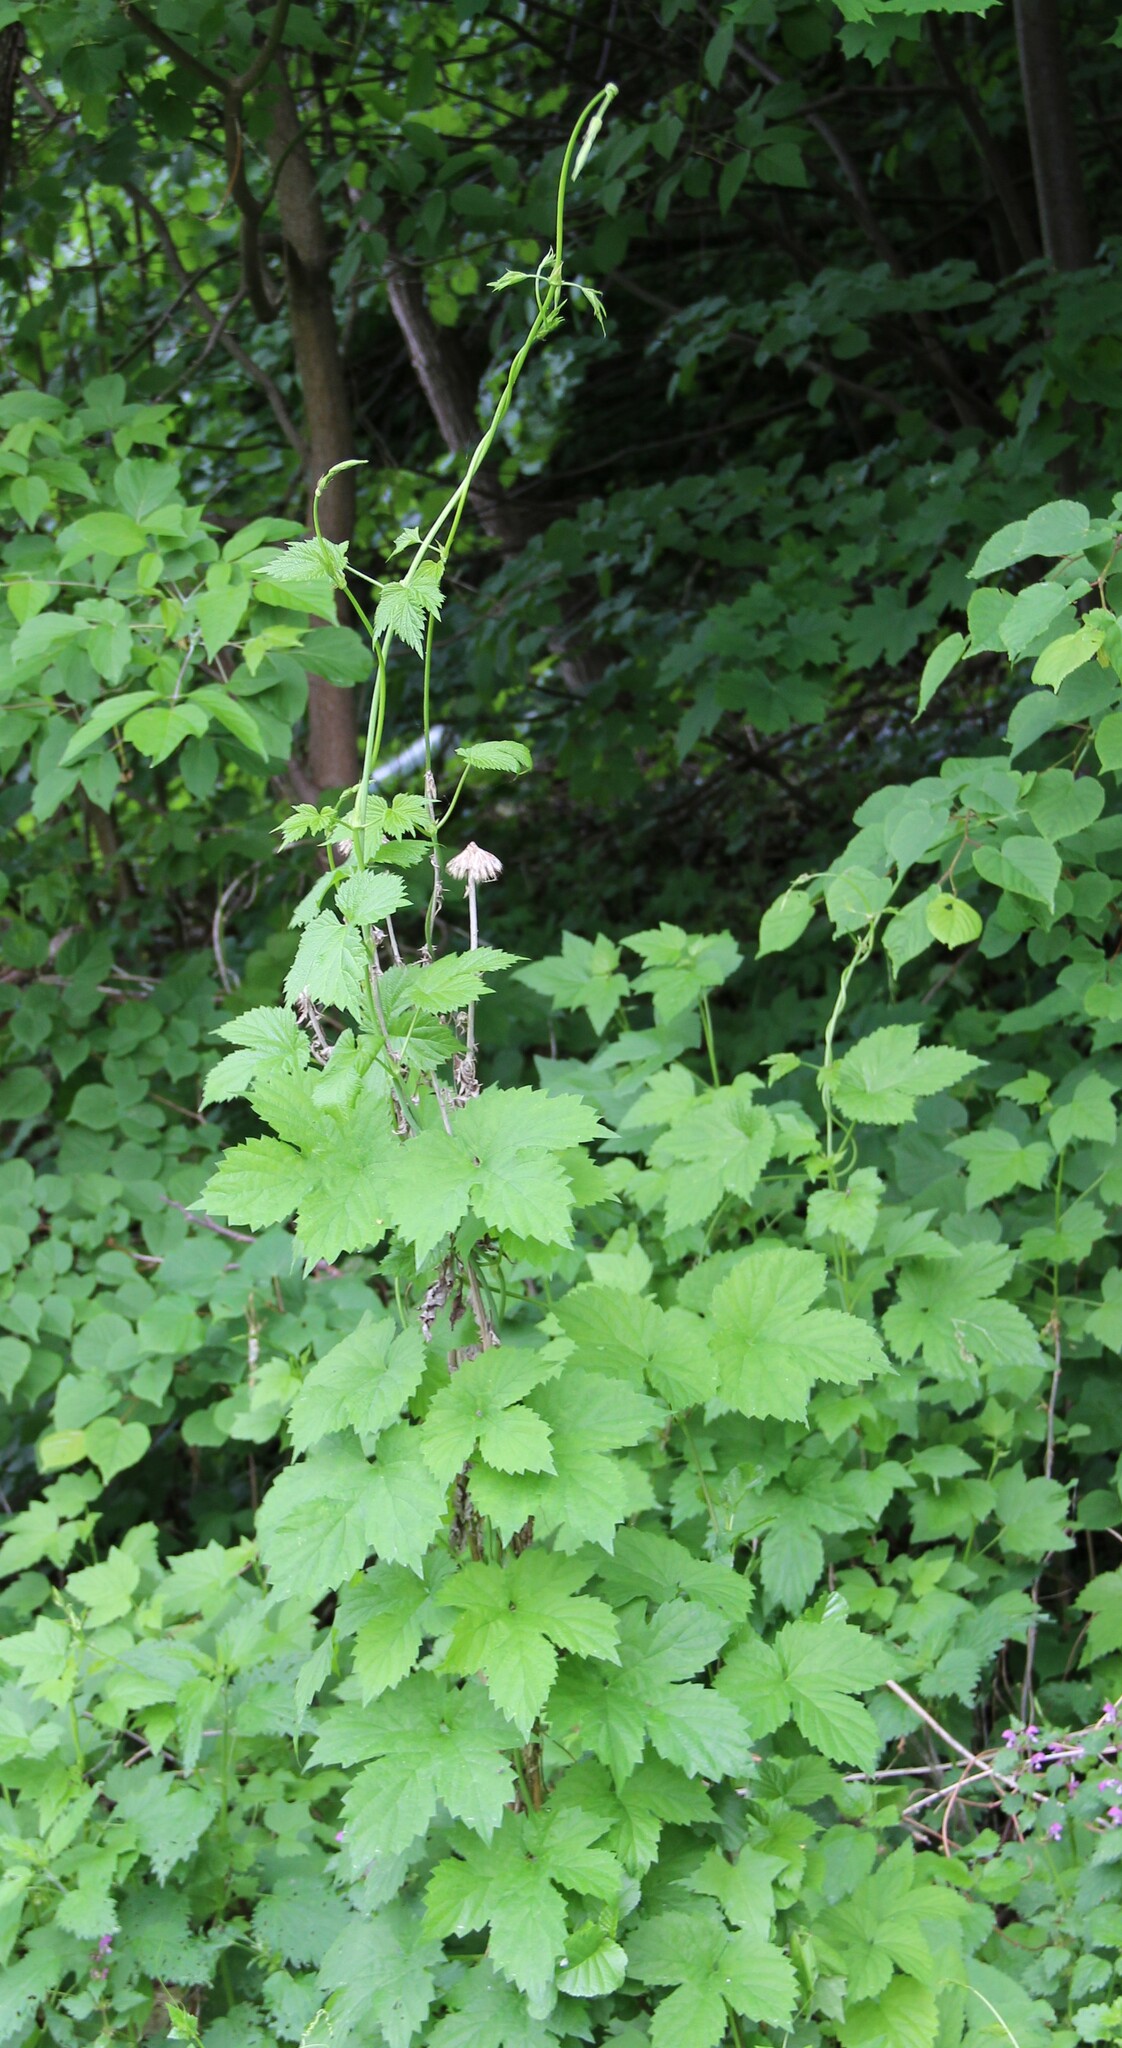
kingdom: Plantae
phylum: Tracheophyta
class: Magnoliopsida
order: Rosales
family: Cannabaceae
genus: Humulus
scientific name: Humulus lupulus
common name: Hop
